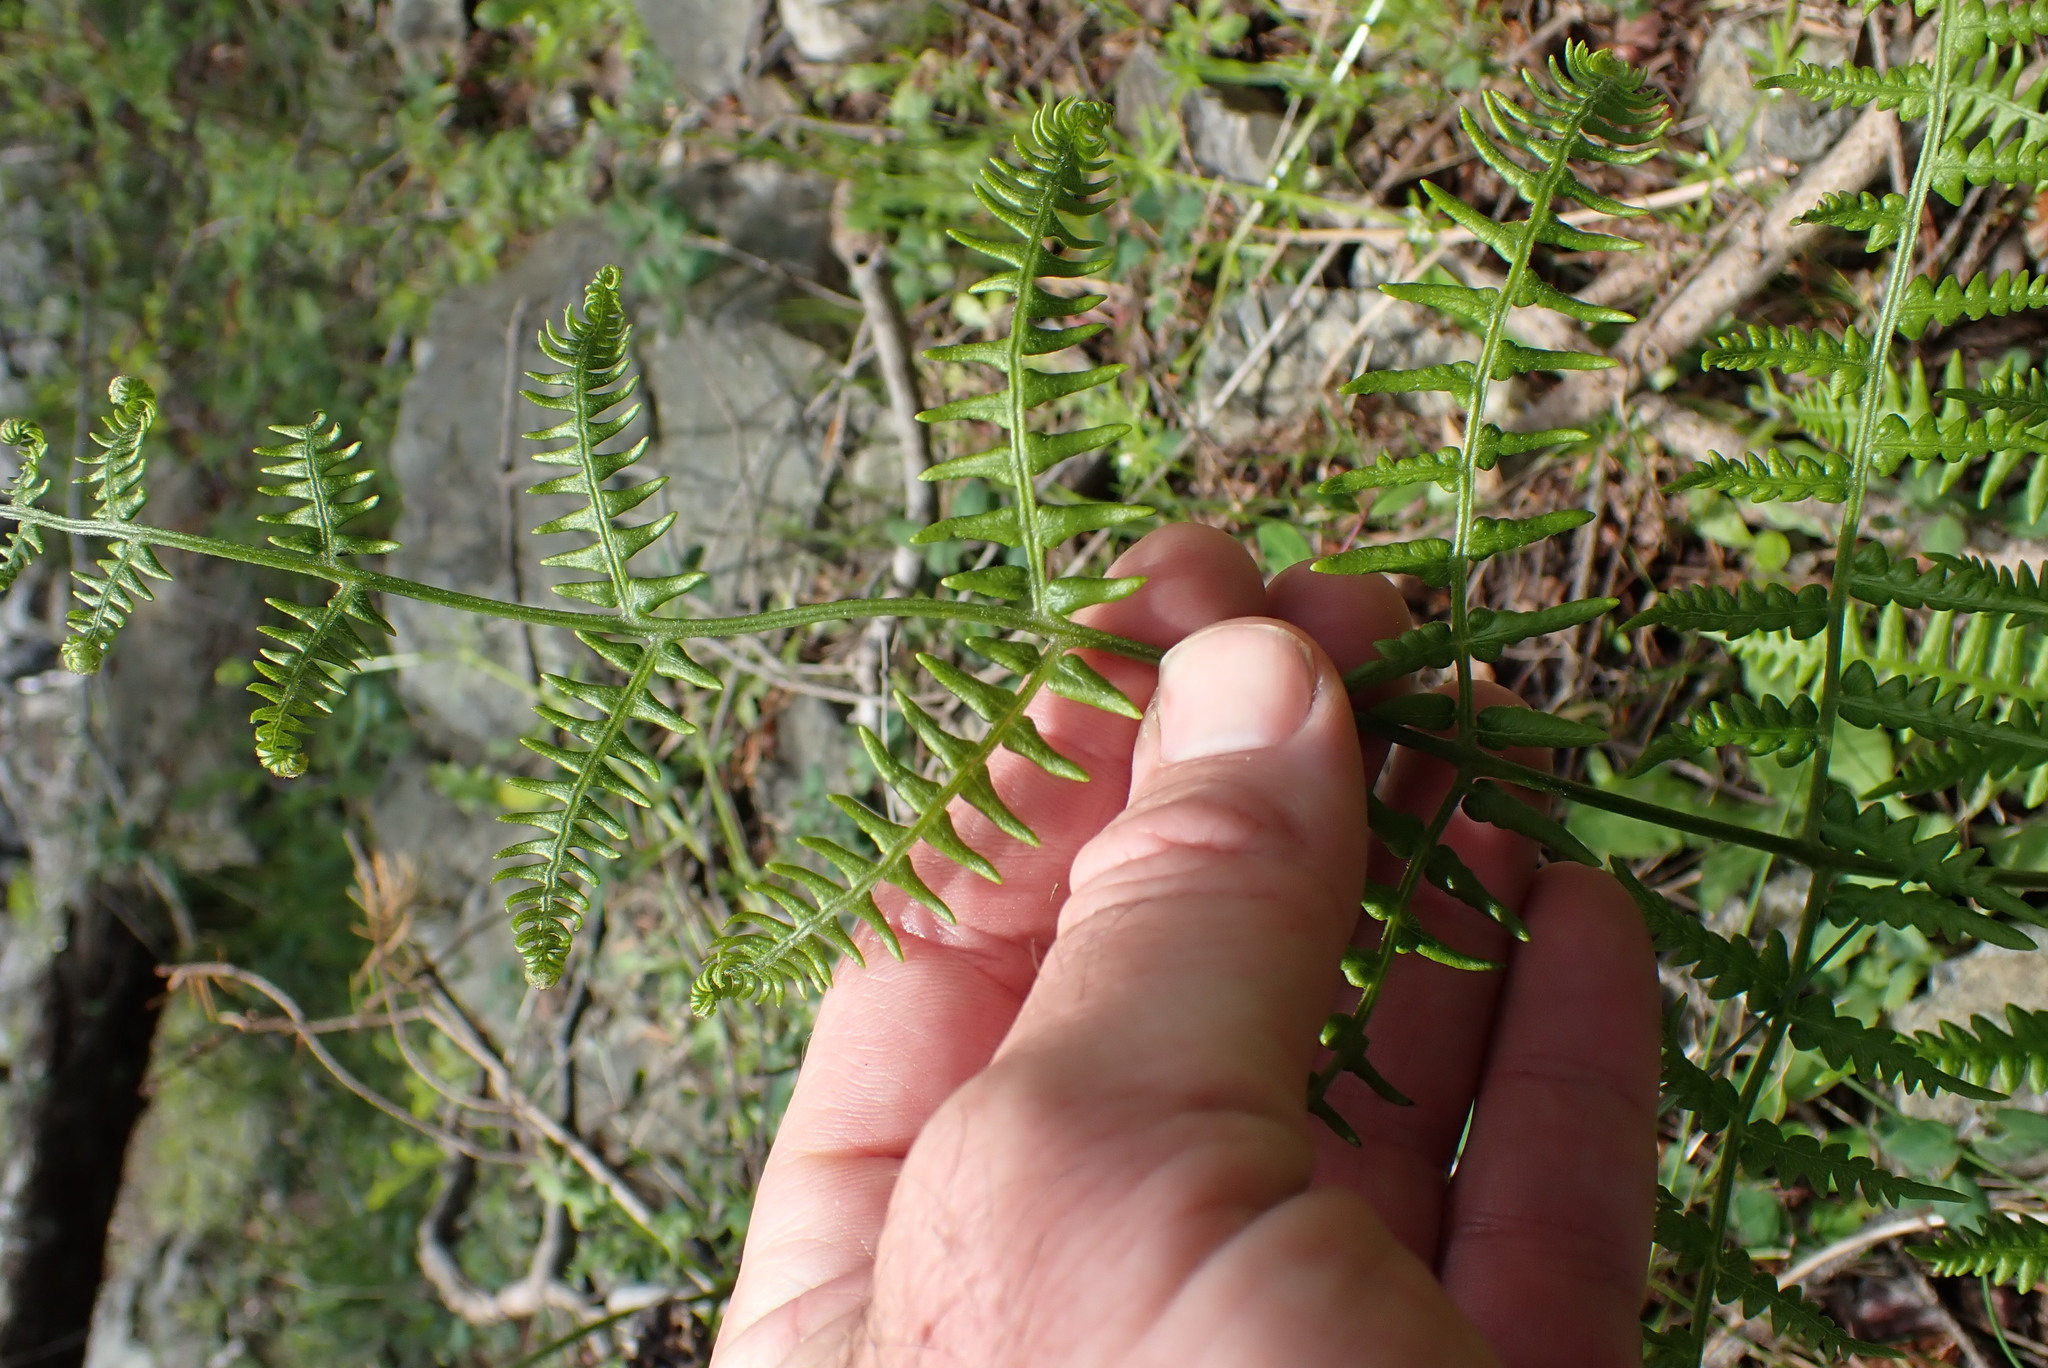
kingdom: Plantae
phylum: Tracheophyta
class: Polypodiopsida
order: Polypodiales
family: Dennstaedtiaceae
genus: Pteridium
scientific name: Pteridium aquilinum
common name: Bracken
